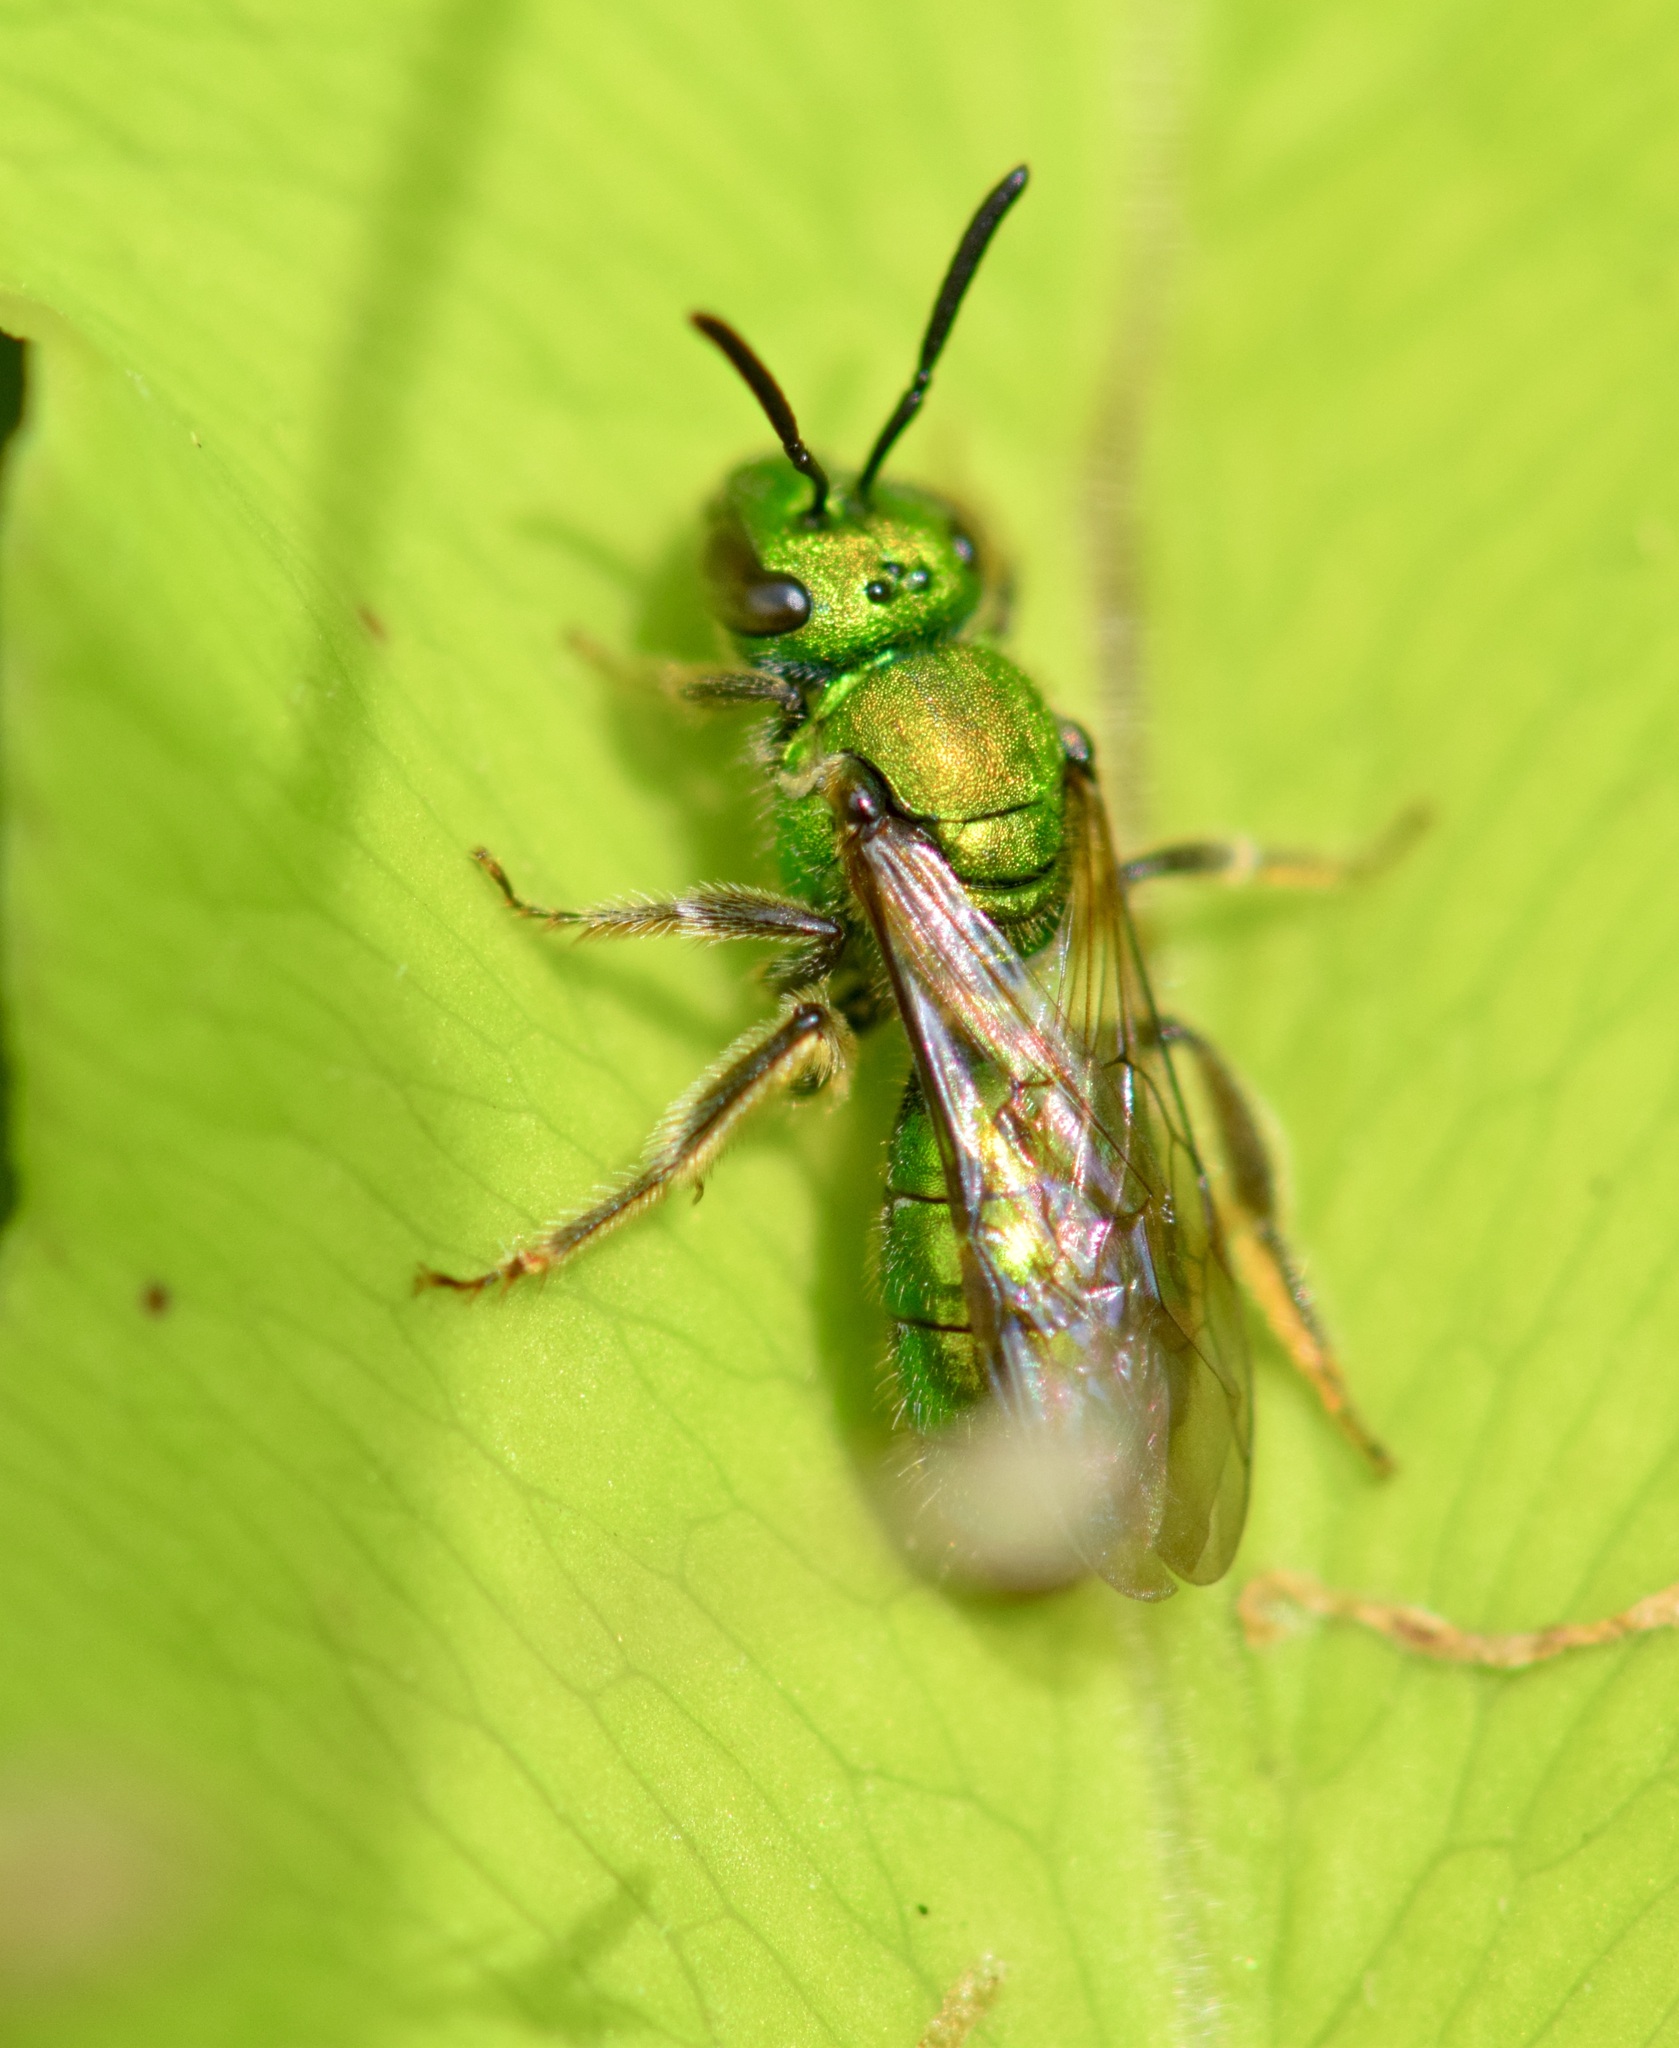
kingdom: Animalia
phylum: Arthropoda
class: Insecta
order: Hymenoptera
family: Halictidae
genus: Augochlora
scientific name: Augochlora pura
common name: Pure green sweat bee
